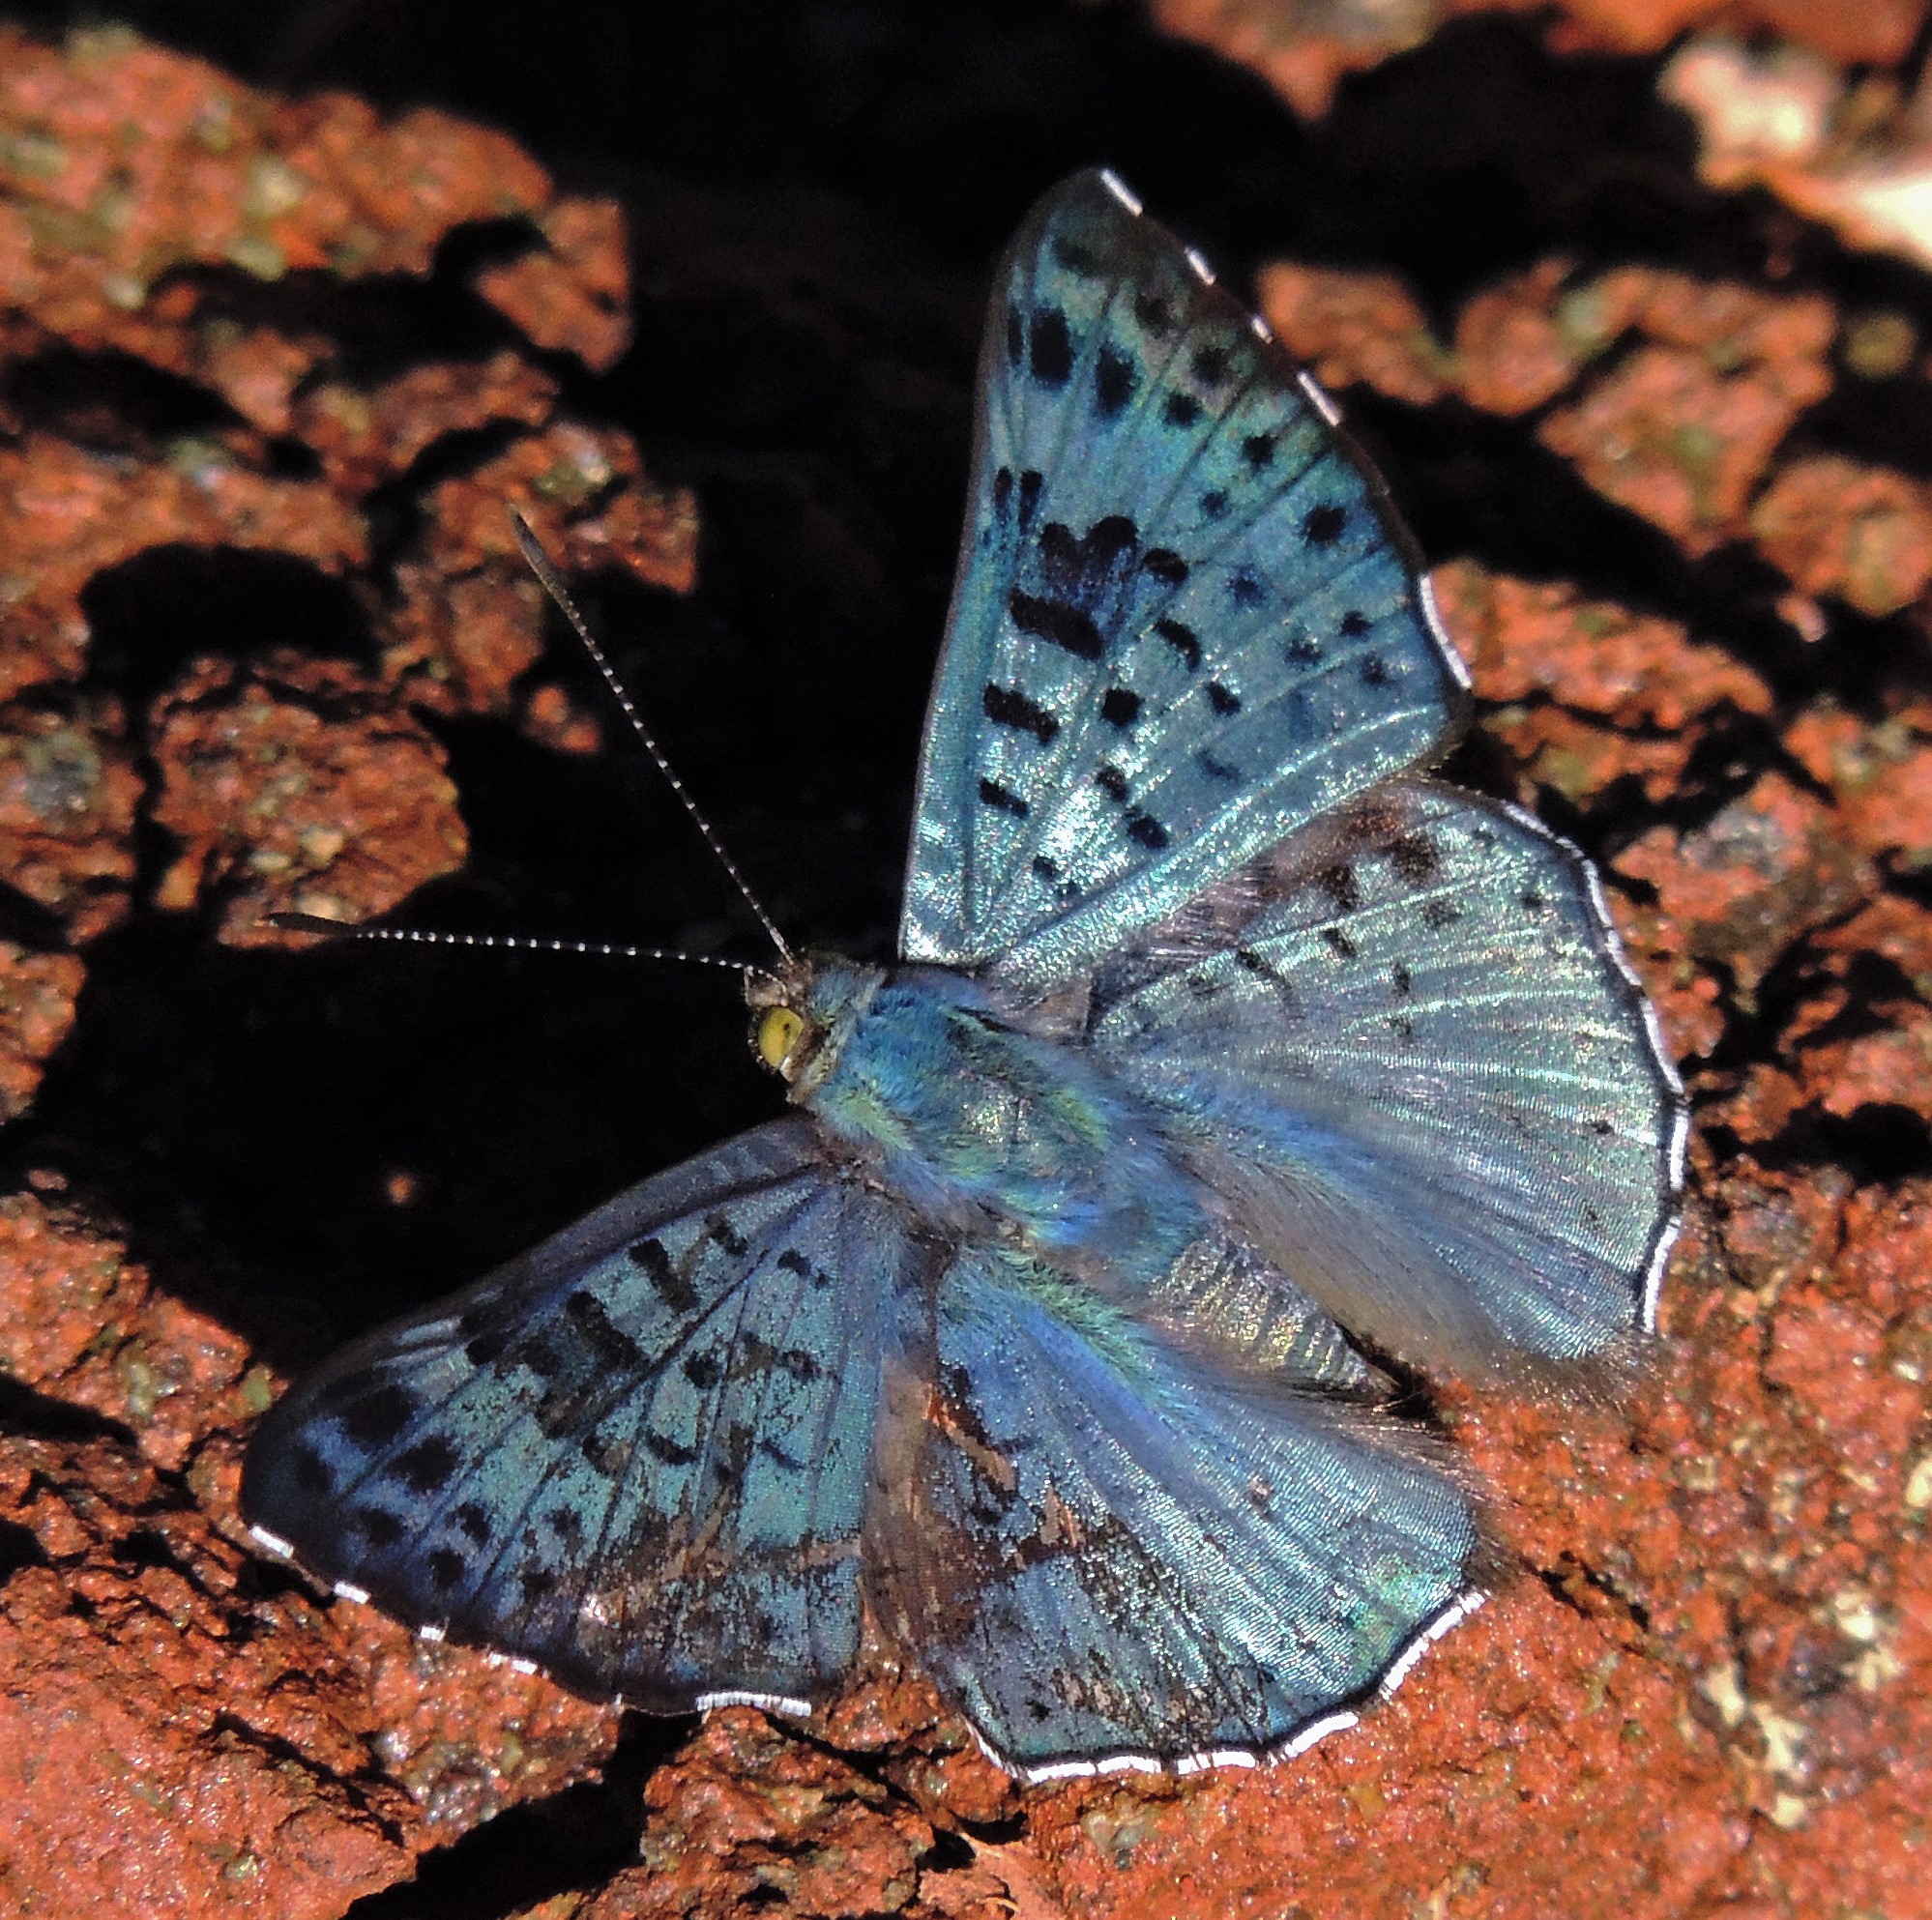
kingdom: Animalia
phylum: Arthropoda
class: Insecta
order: Lepidoptera
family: Riodinidae
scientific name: Riodinidae
